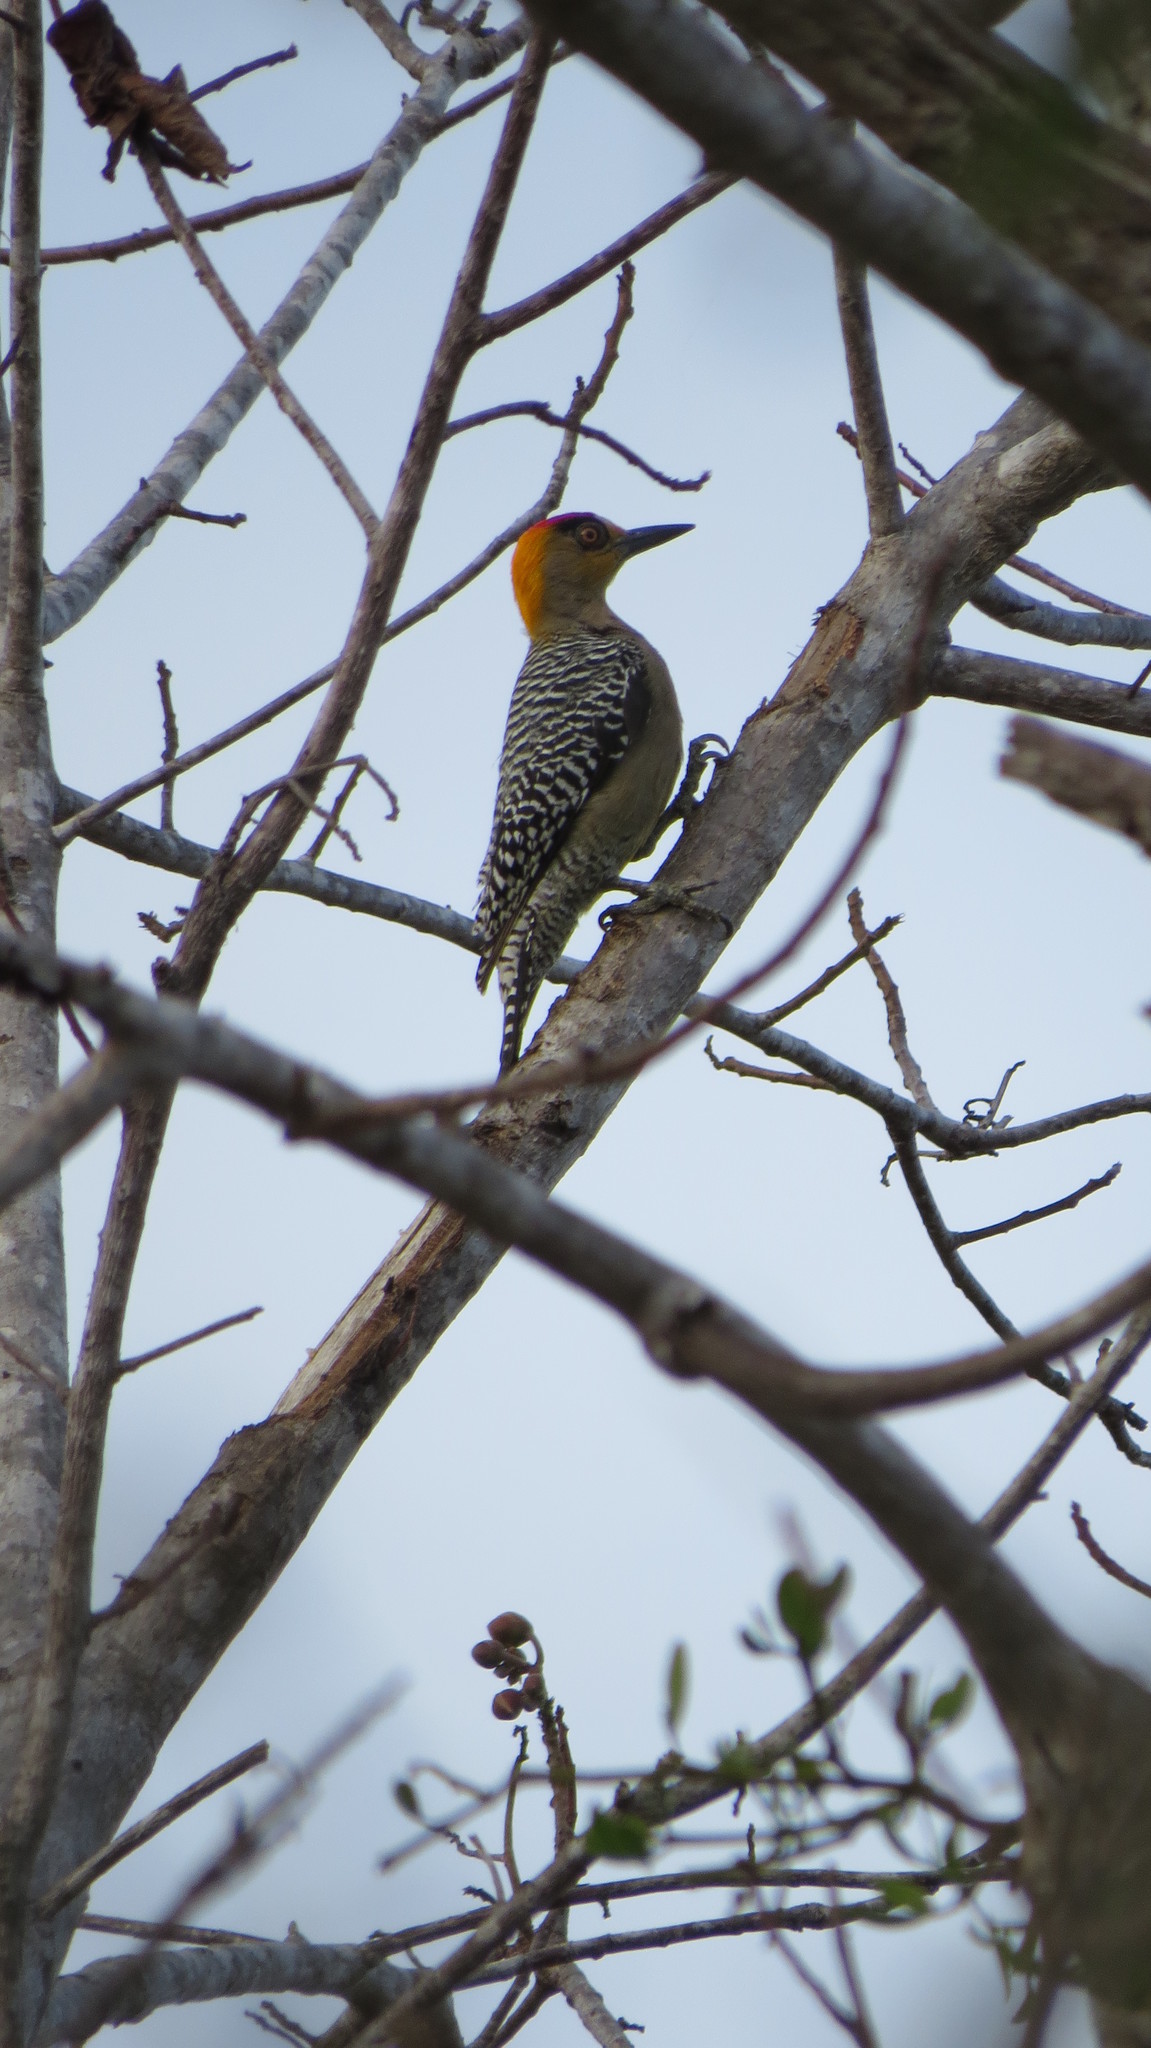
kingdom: Animalia
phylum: Chordata
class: Aves
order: Piciformes
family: Picidae
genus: Melanerpes
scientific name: Melanerpes chrysogenys
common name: Golden-cheeked woodpecker
